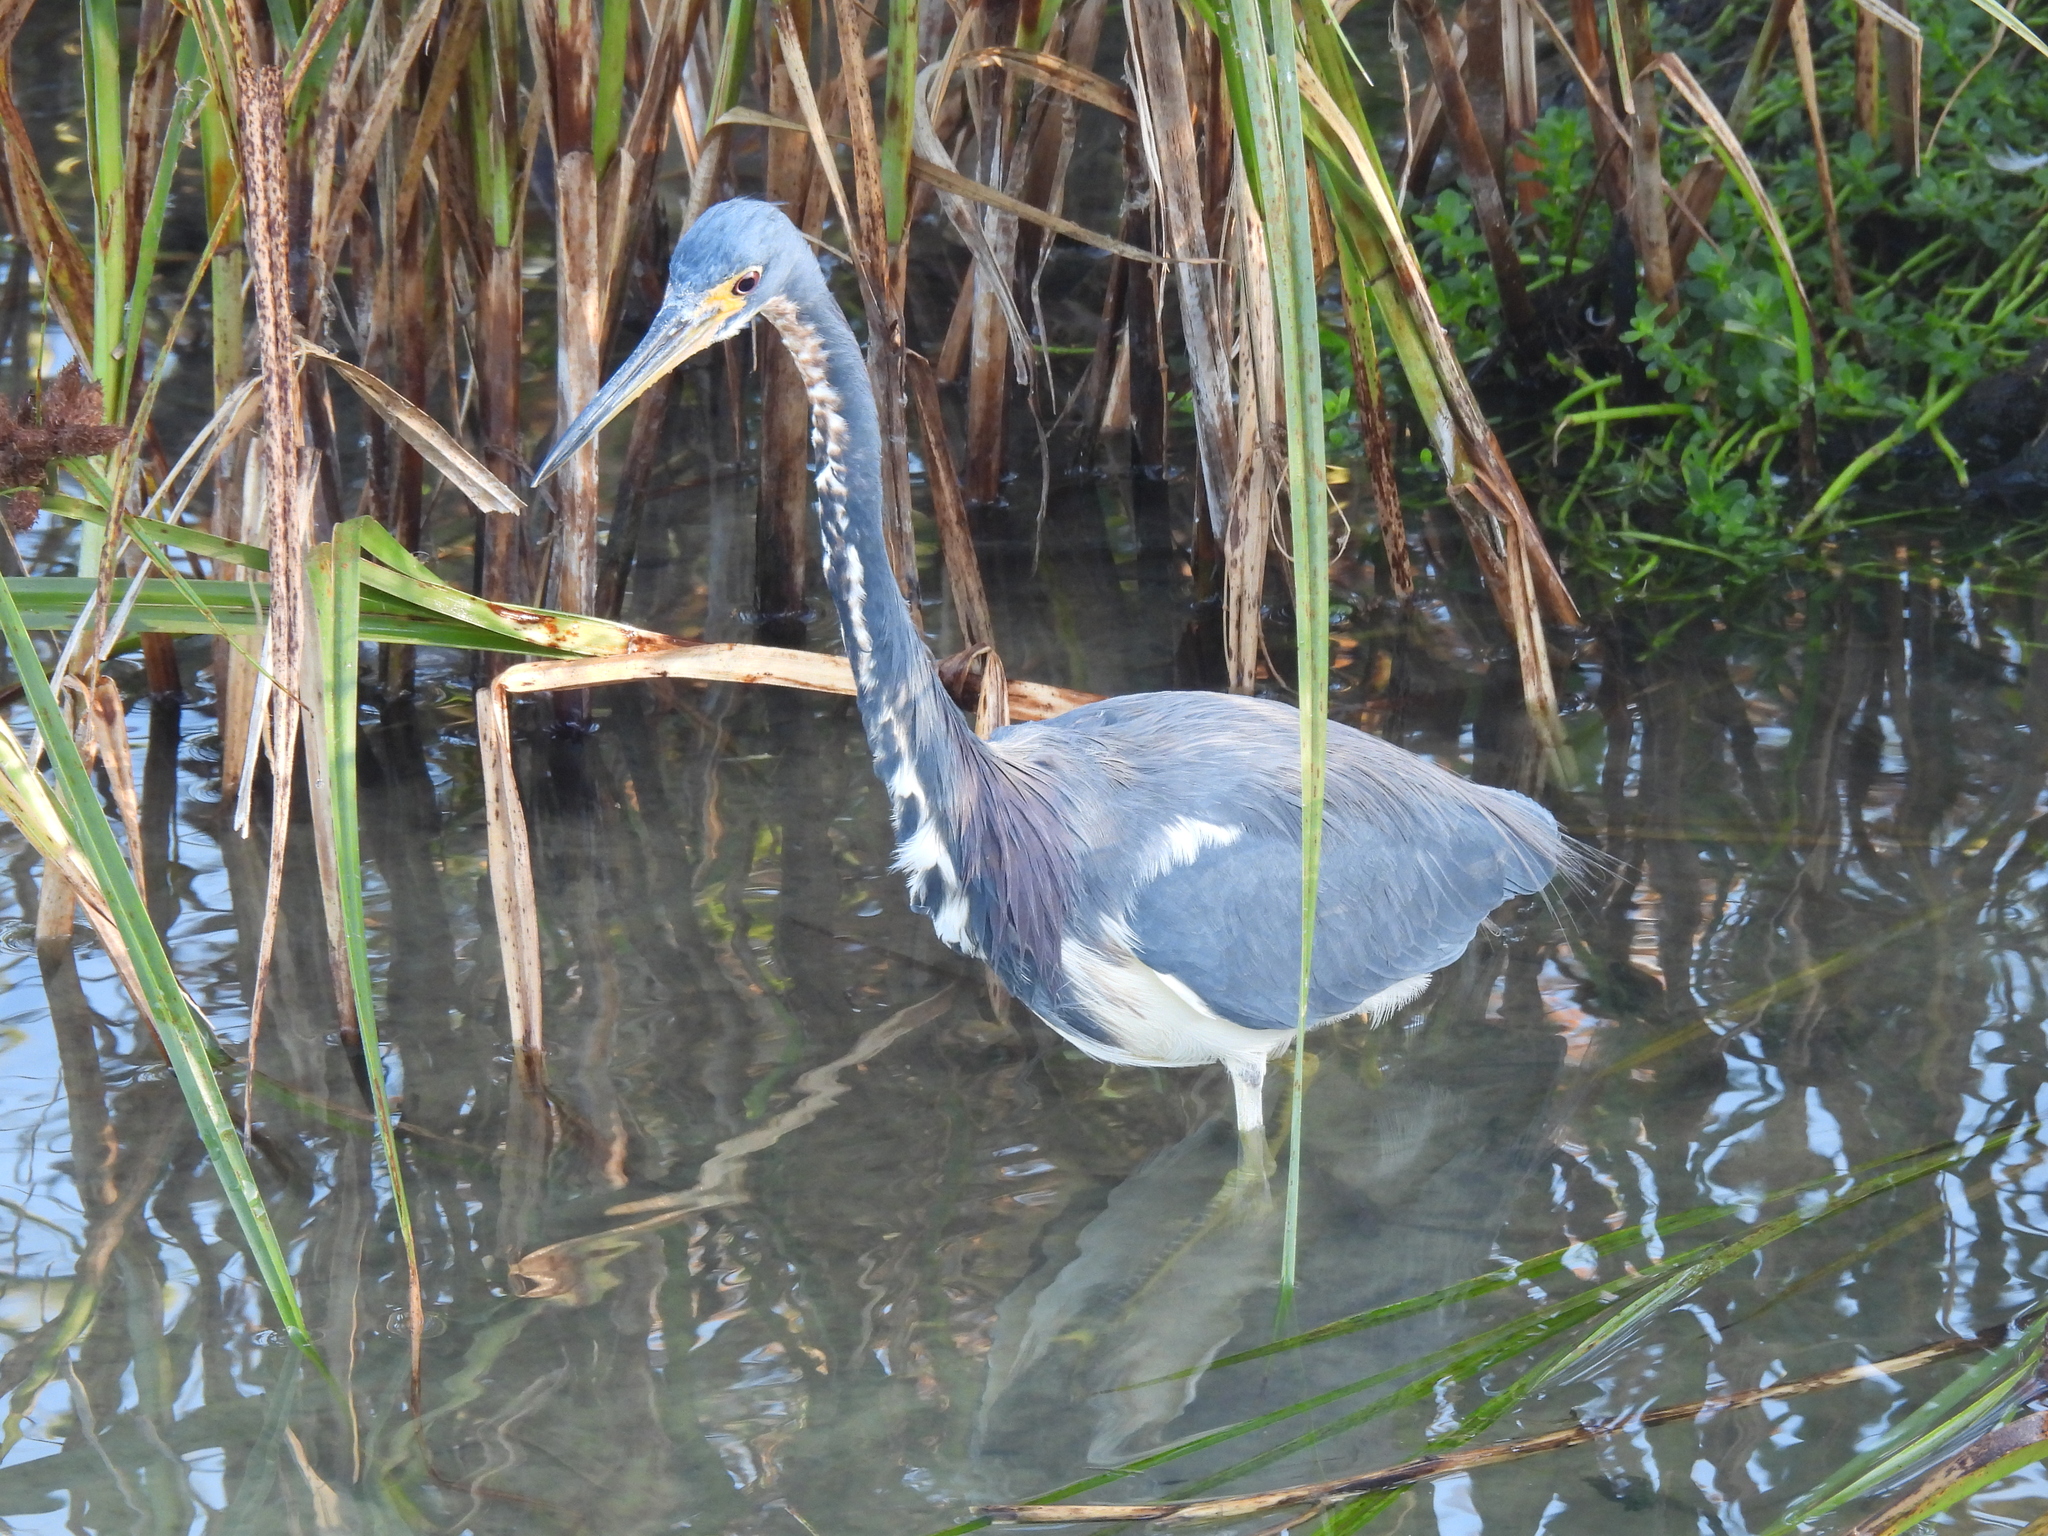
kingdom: Animalia
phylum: Chordata
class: Aves
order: Pelecaniformes
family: Ardeidae
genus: Egretta
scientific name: Egretta tricolor
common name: Tricolored heron
